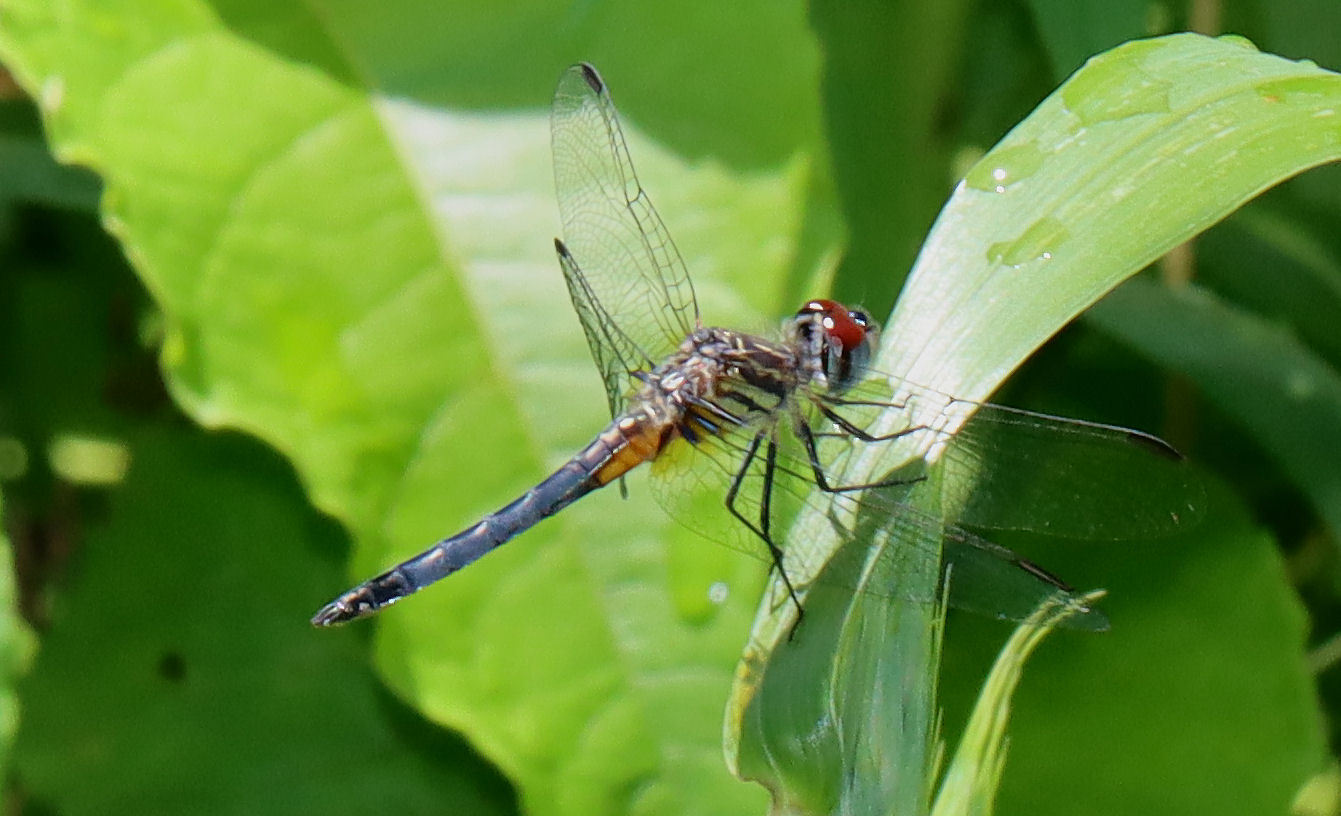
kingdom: Animalia
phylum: Arthropoda
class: Insecta
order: Odonata
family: Libellulidae
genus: Pachydiplax
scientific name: Pachydiplax longipennis
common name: Blue dasher
